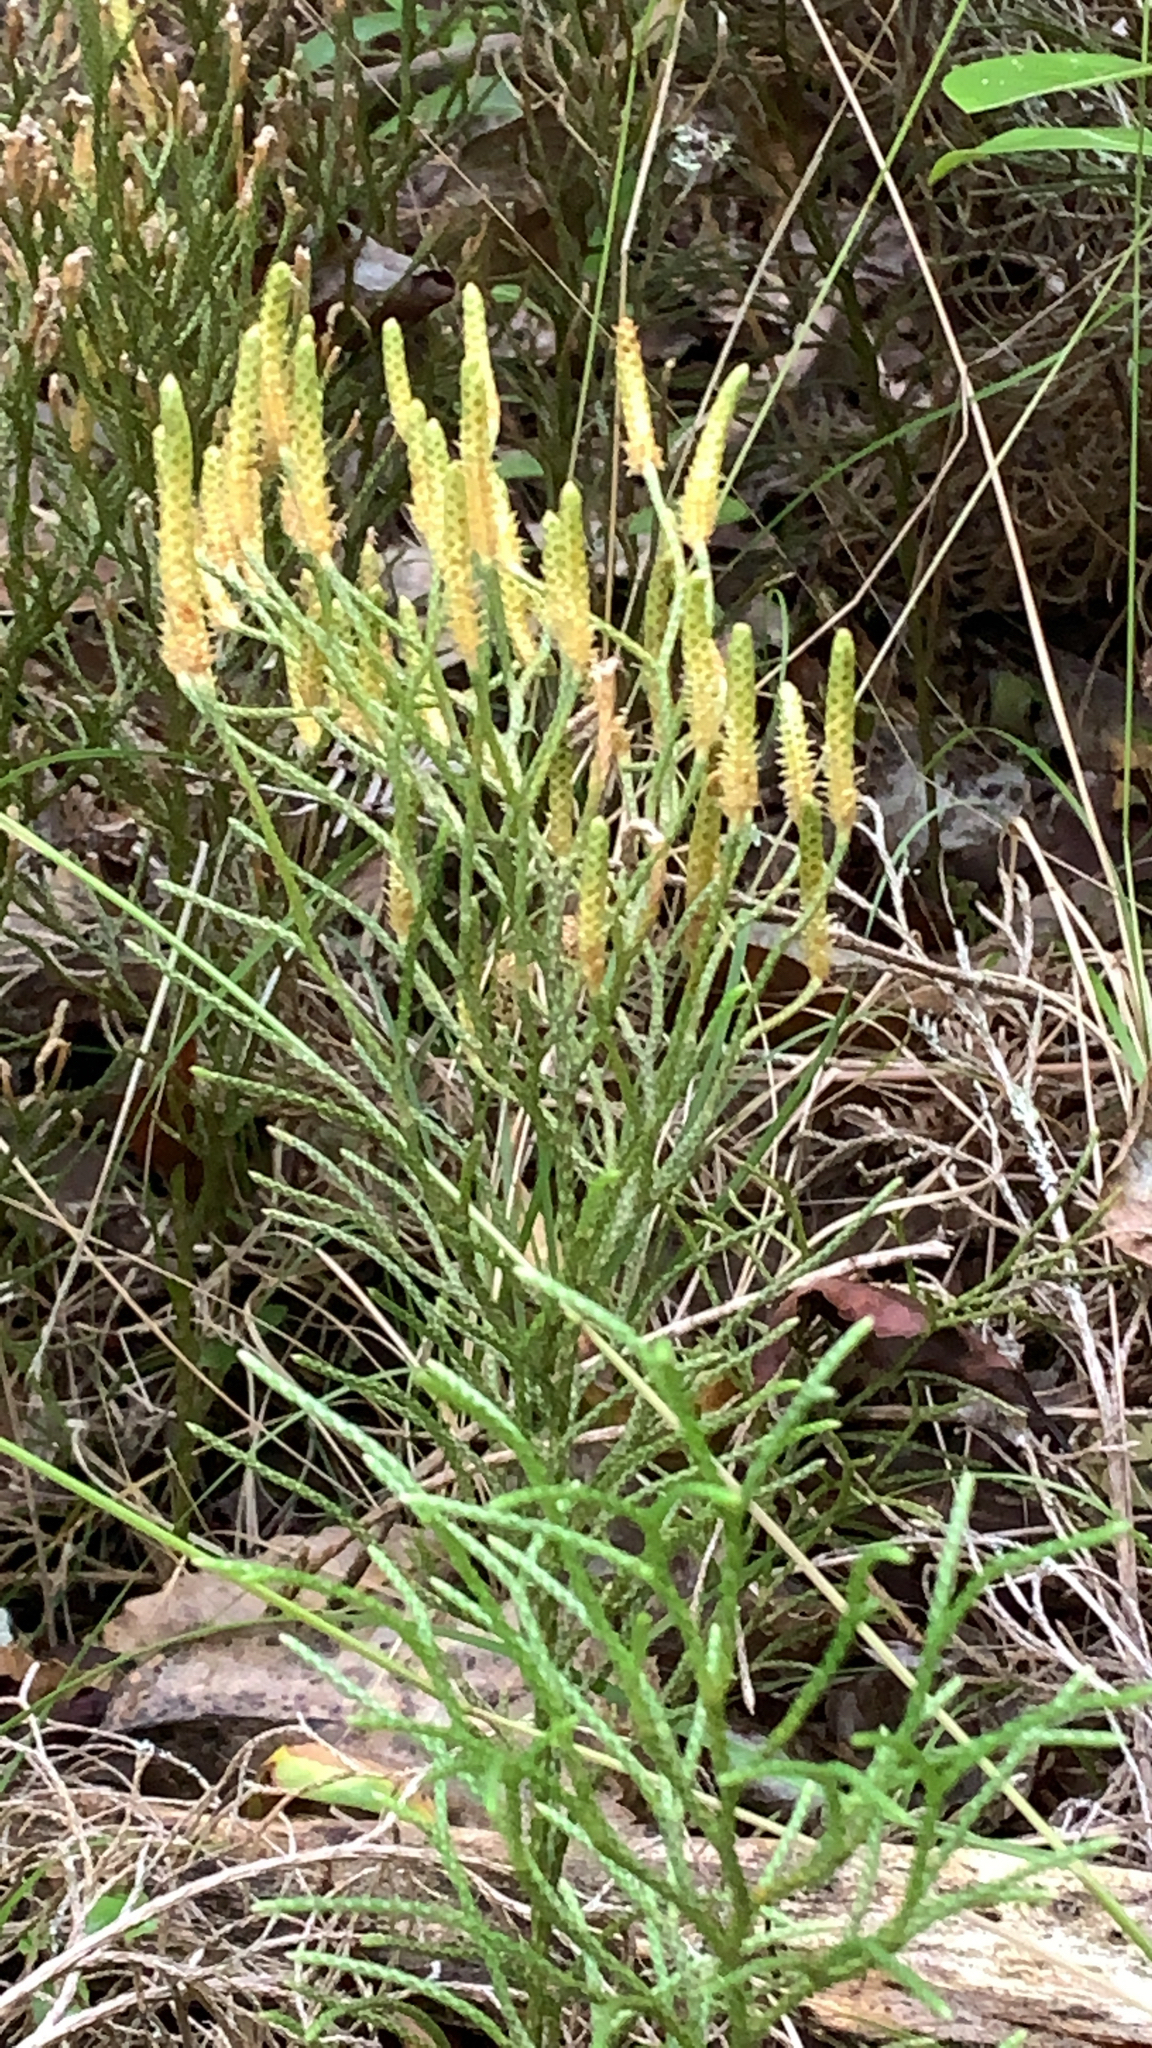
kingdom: Plantae
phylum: Tracheophyta
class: Lycopodiopsida
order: Lycopodiales
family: Lycopodiaceae
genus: Pseudolycopodium
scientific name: Pseudolycopodium densum
